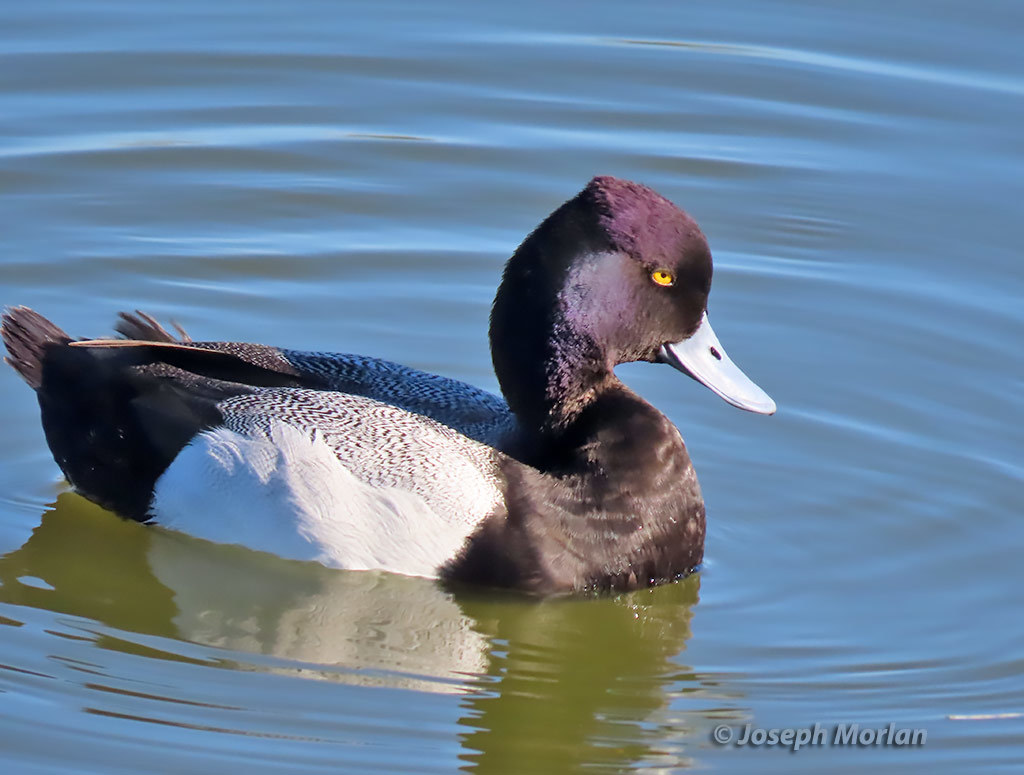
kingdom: Animalia
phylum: Chordata
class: Aves
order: Anseriformes
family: Anatidae
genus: Aythya
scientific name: Aythya affinis
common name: Lesser scaup
